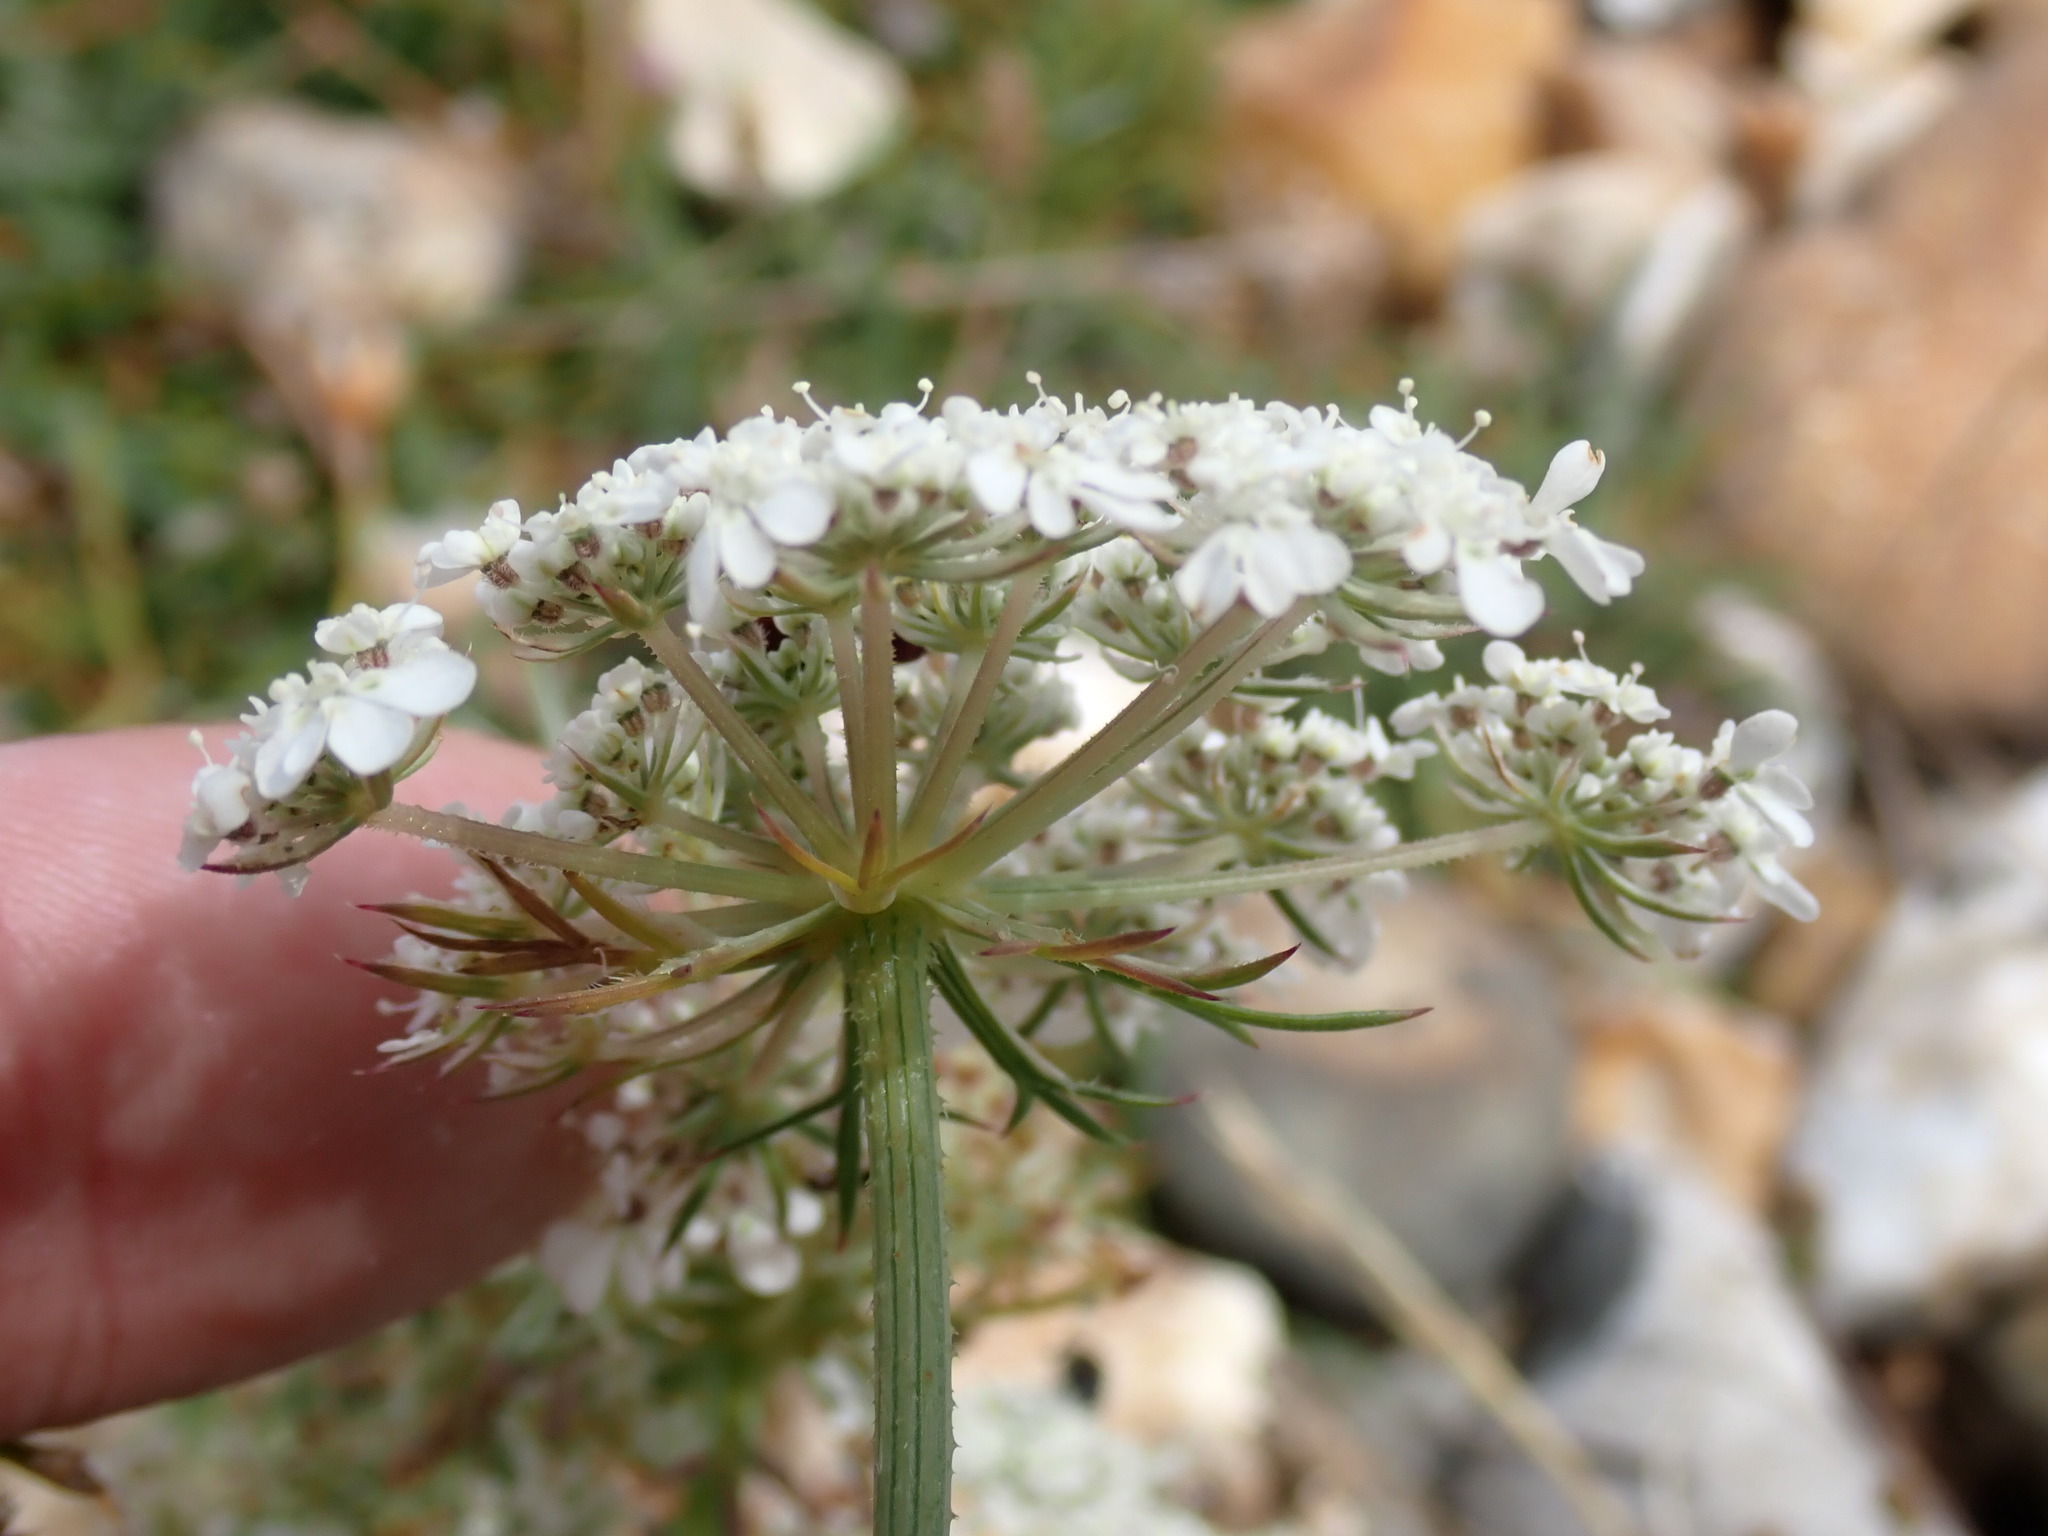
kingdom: Plantae
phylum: Tracheophyta
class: Magnoliopsida
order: Apiales
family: Apiaceae
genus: Daucus
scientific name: Daucus carota
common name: Wild carrot
